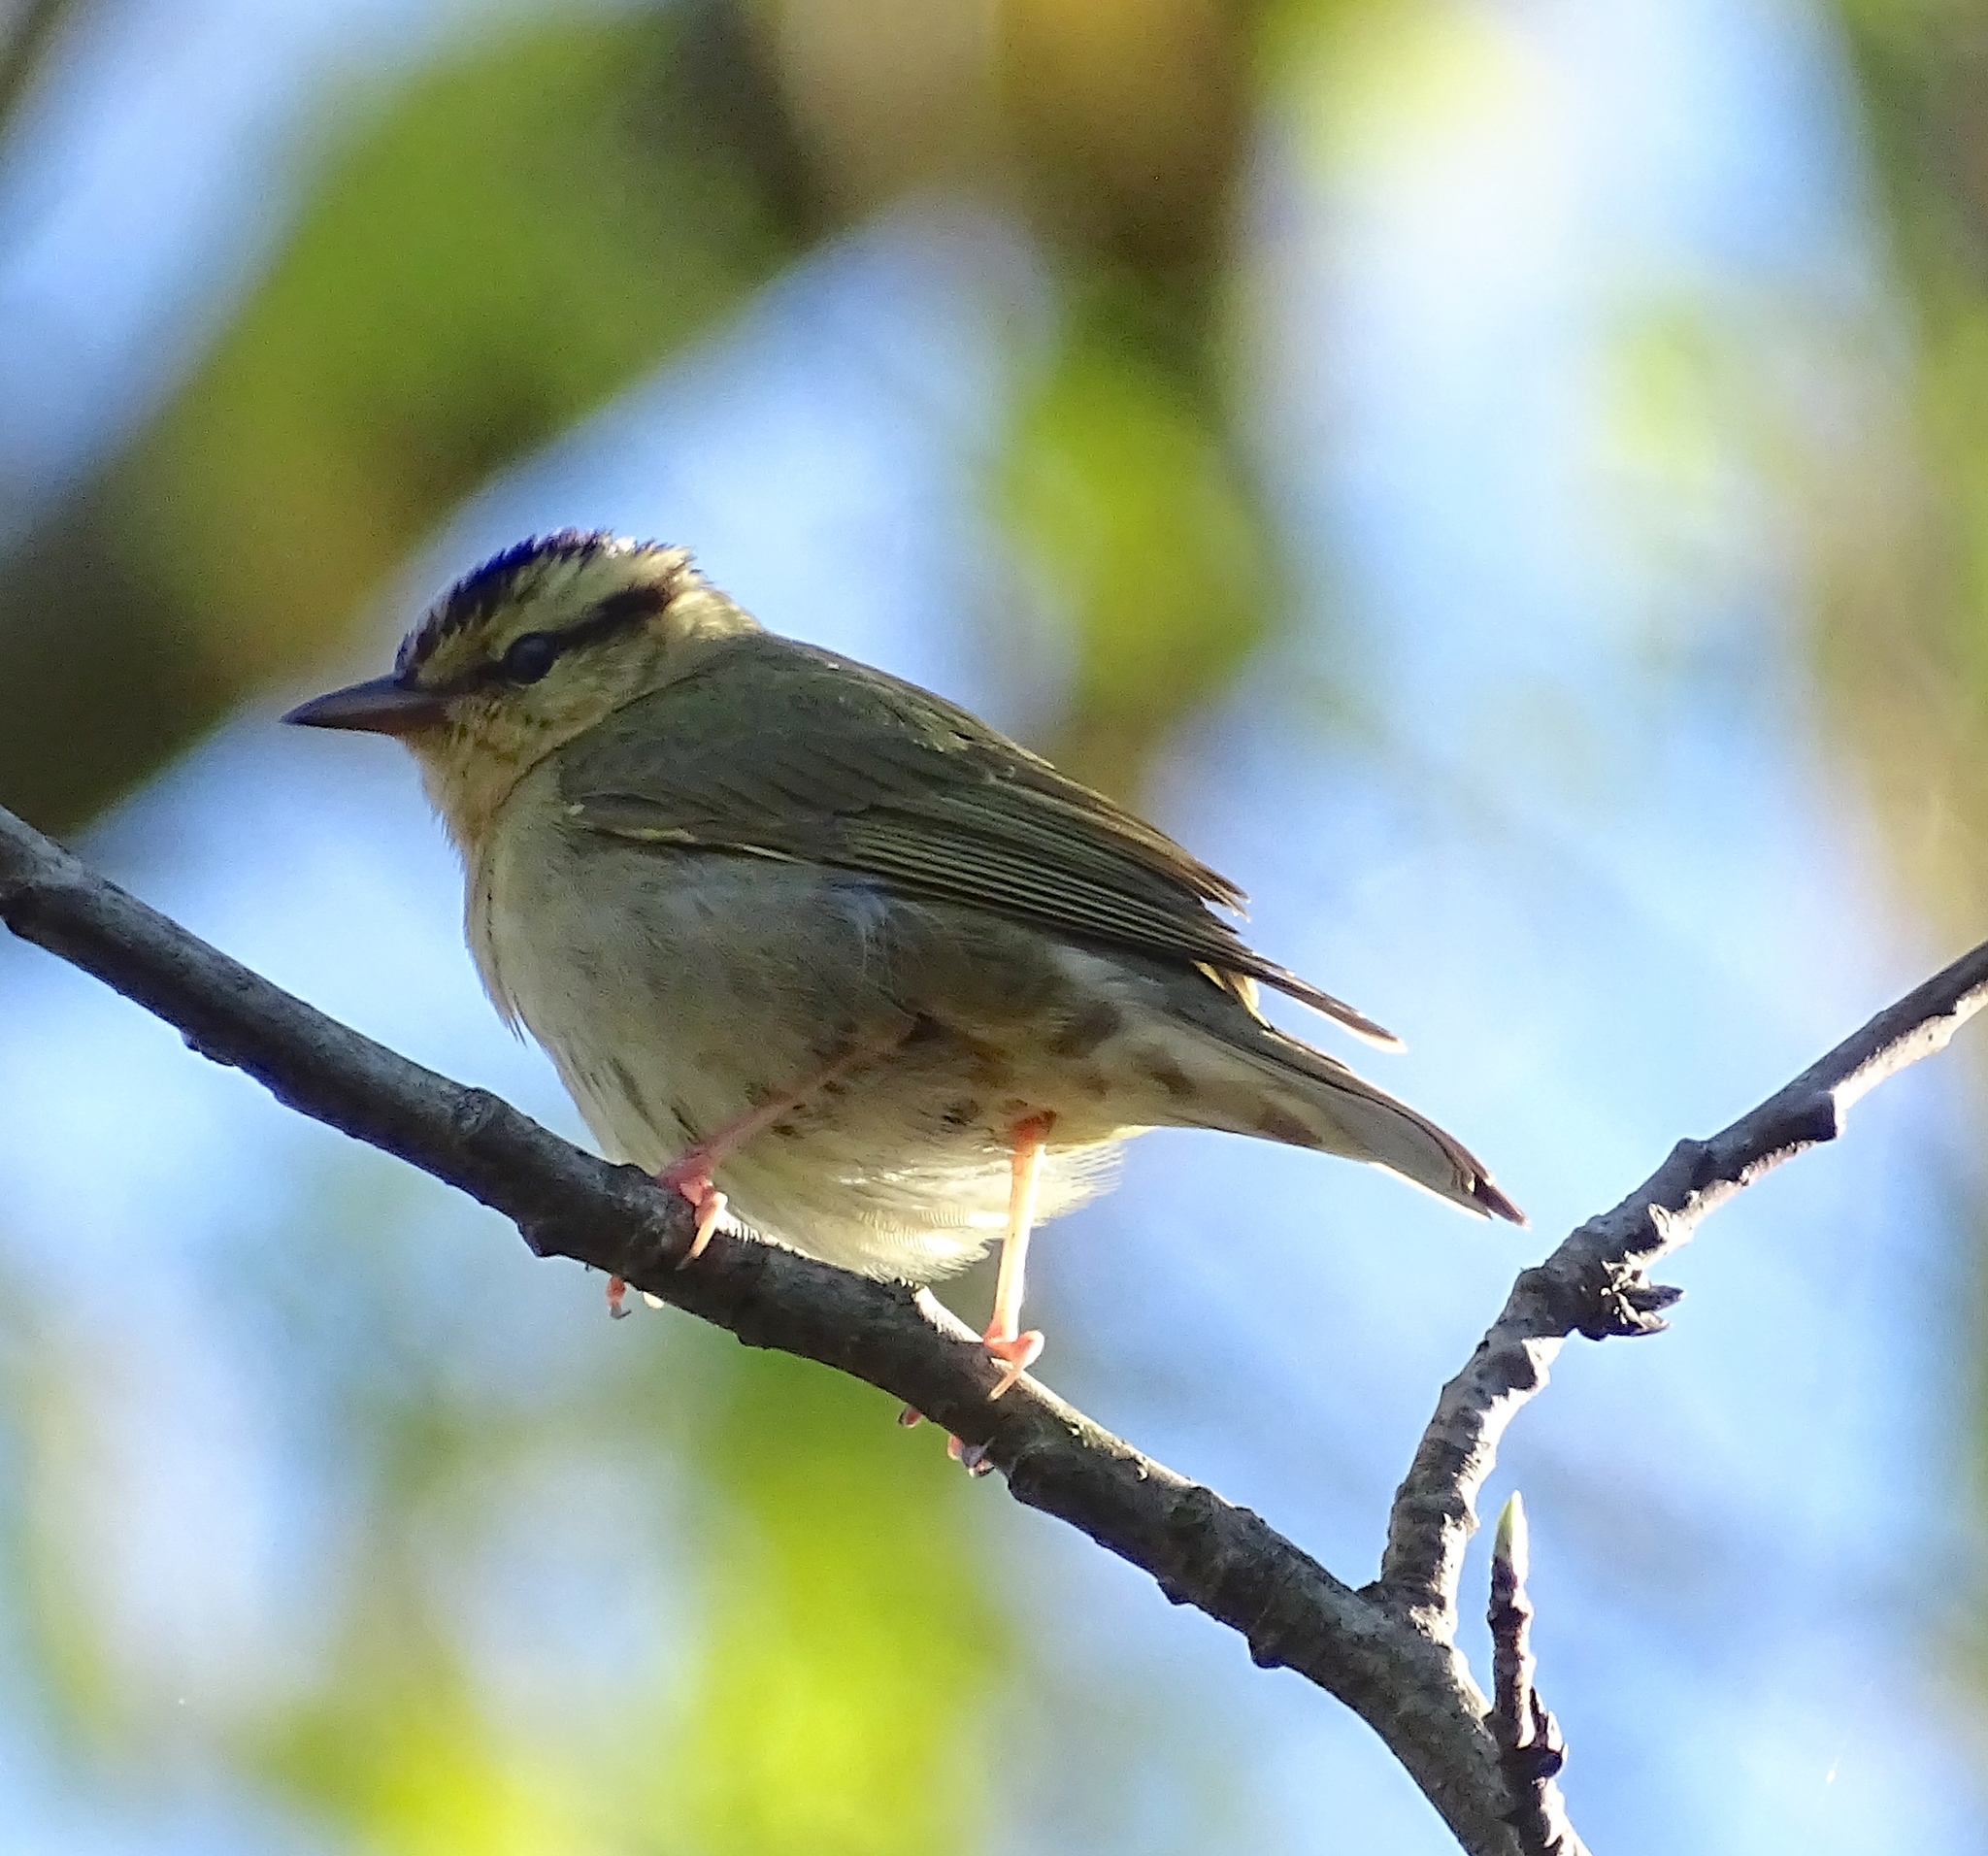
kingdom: Animalia
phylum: Chordata
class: Aves
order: Passeriformes
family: Parulidae
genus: Helmitheros
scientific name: Helmitheros vermivorum
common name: Worm-eating warbler
